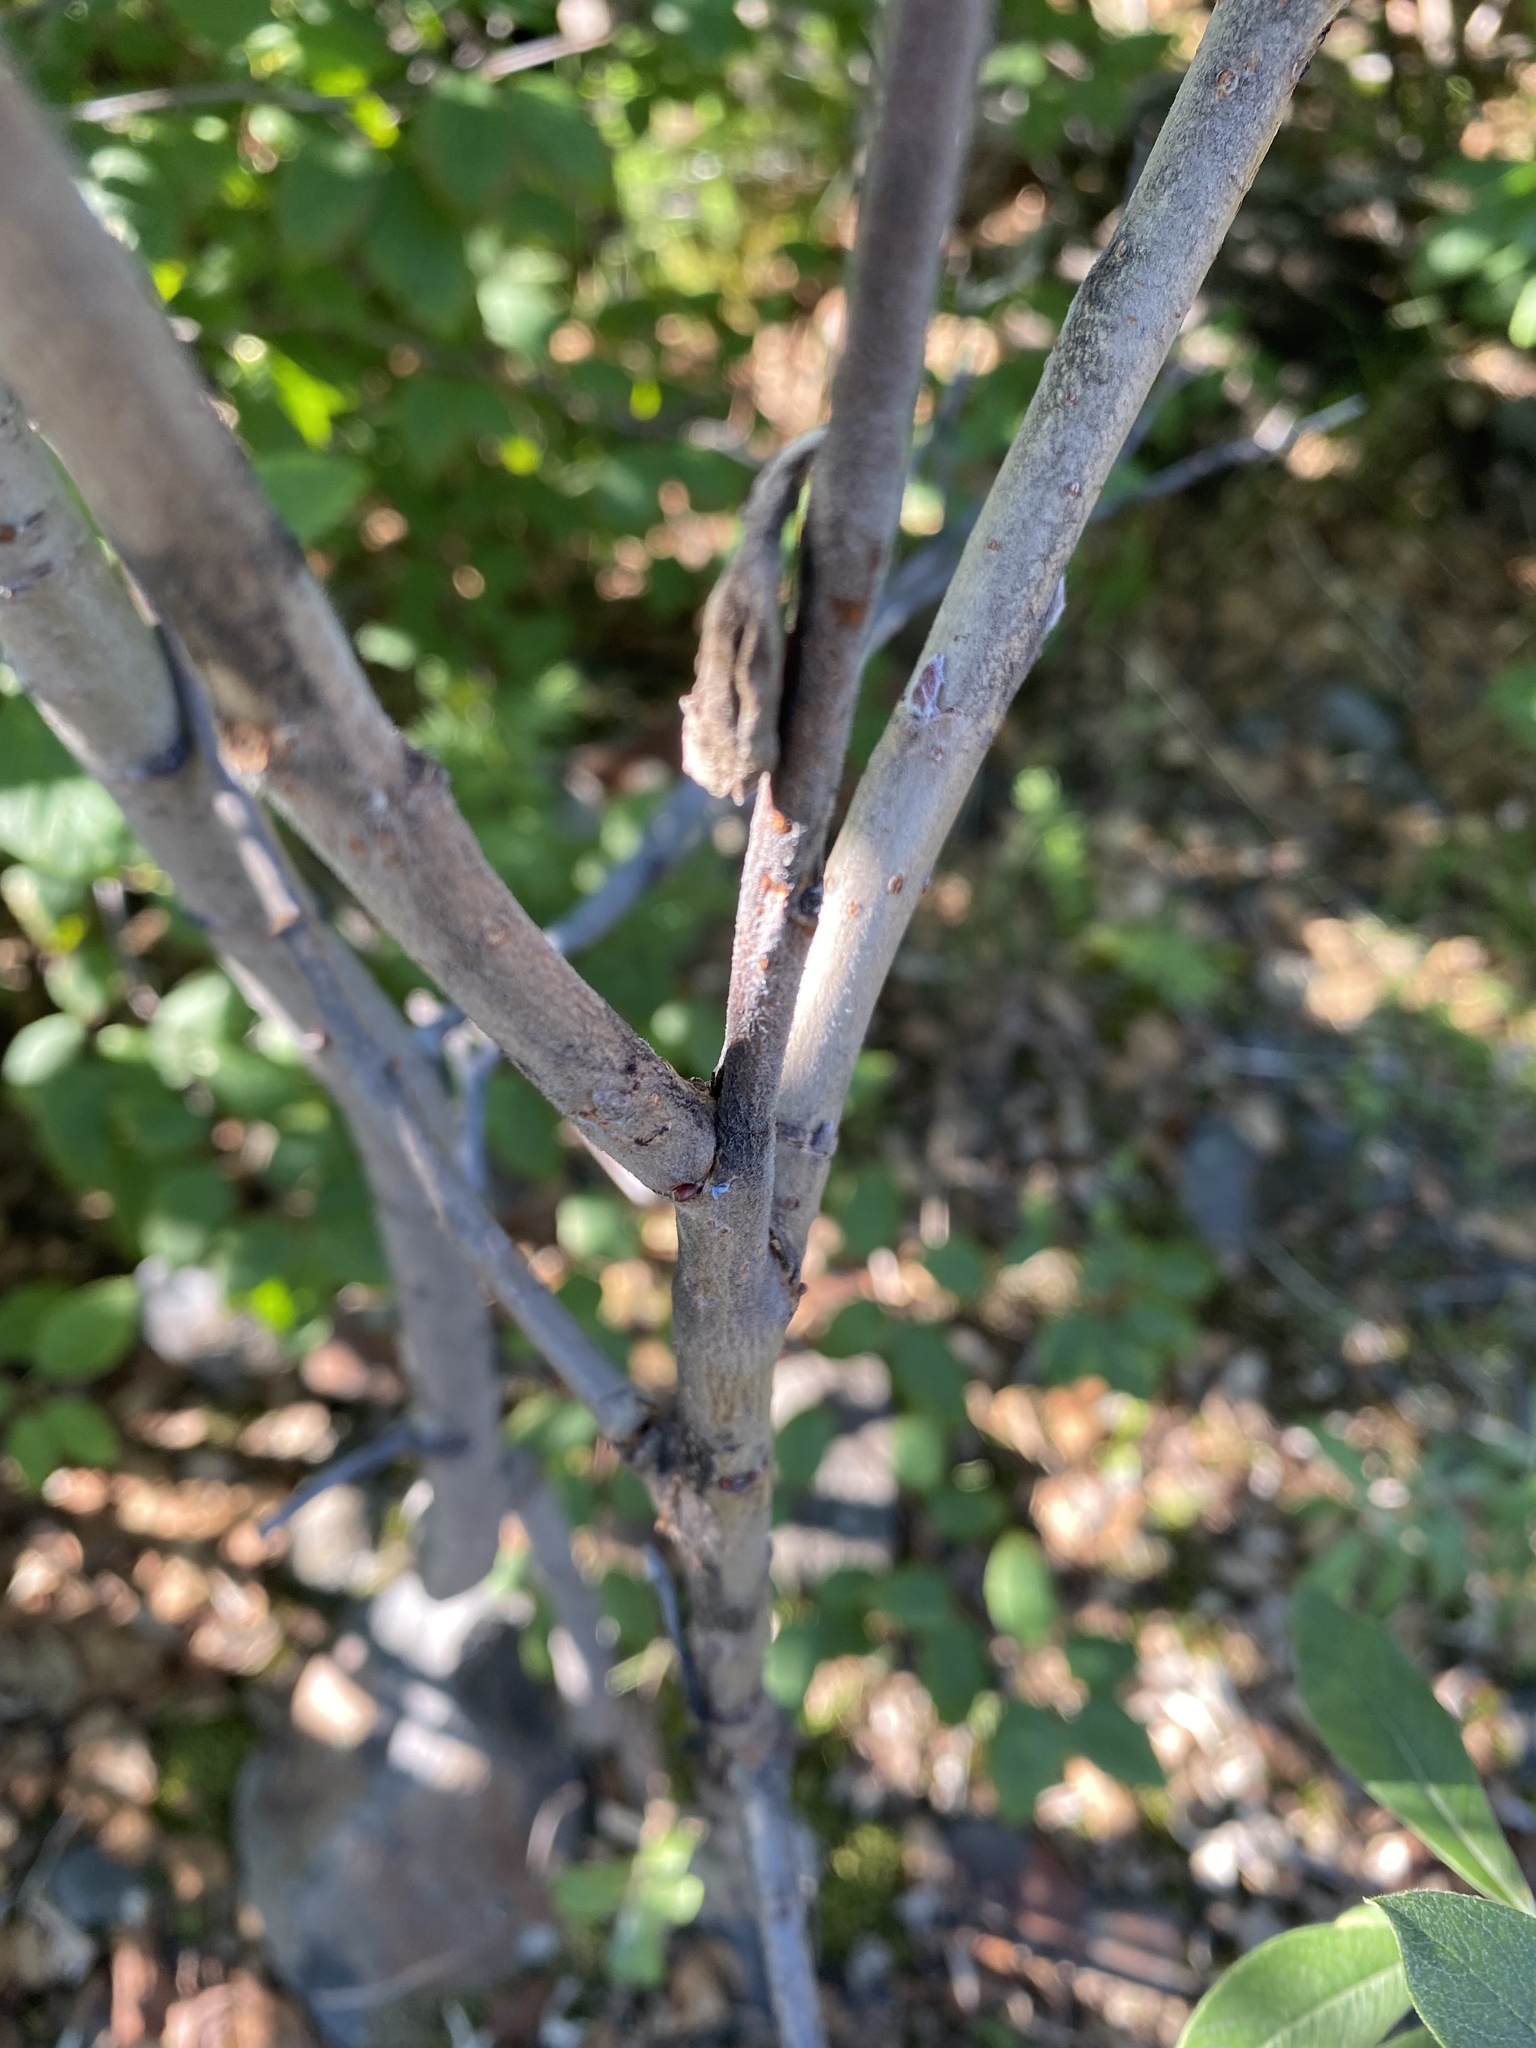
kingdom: Plantae
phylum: Tracheophyta
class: Magnoliopsida
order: Malpighiales
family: Salicaceae
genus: Salix
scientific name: Salix alaxensis
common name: Feltleaf willow
